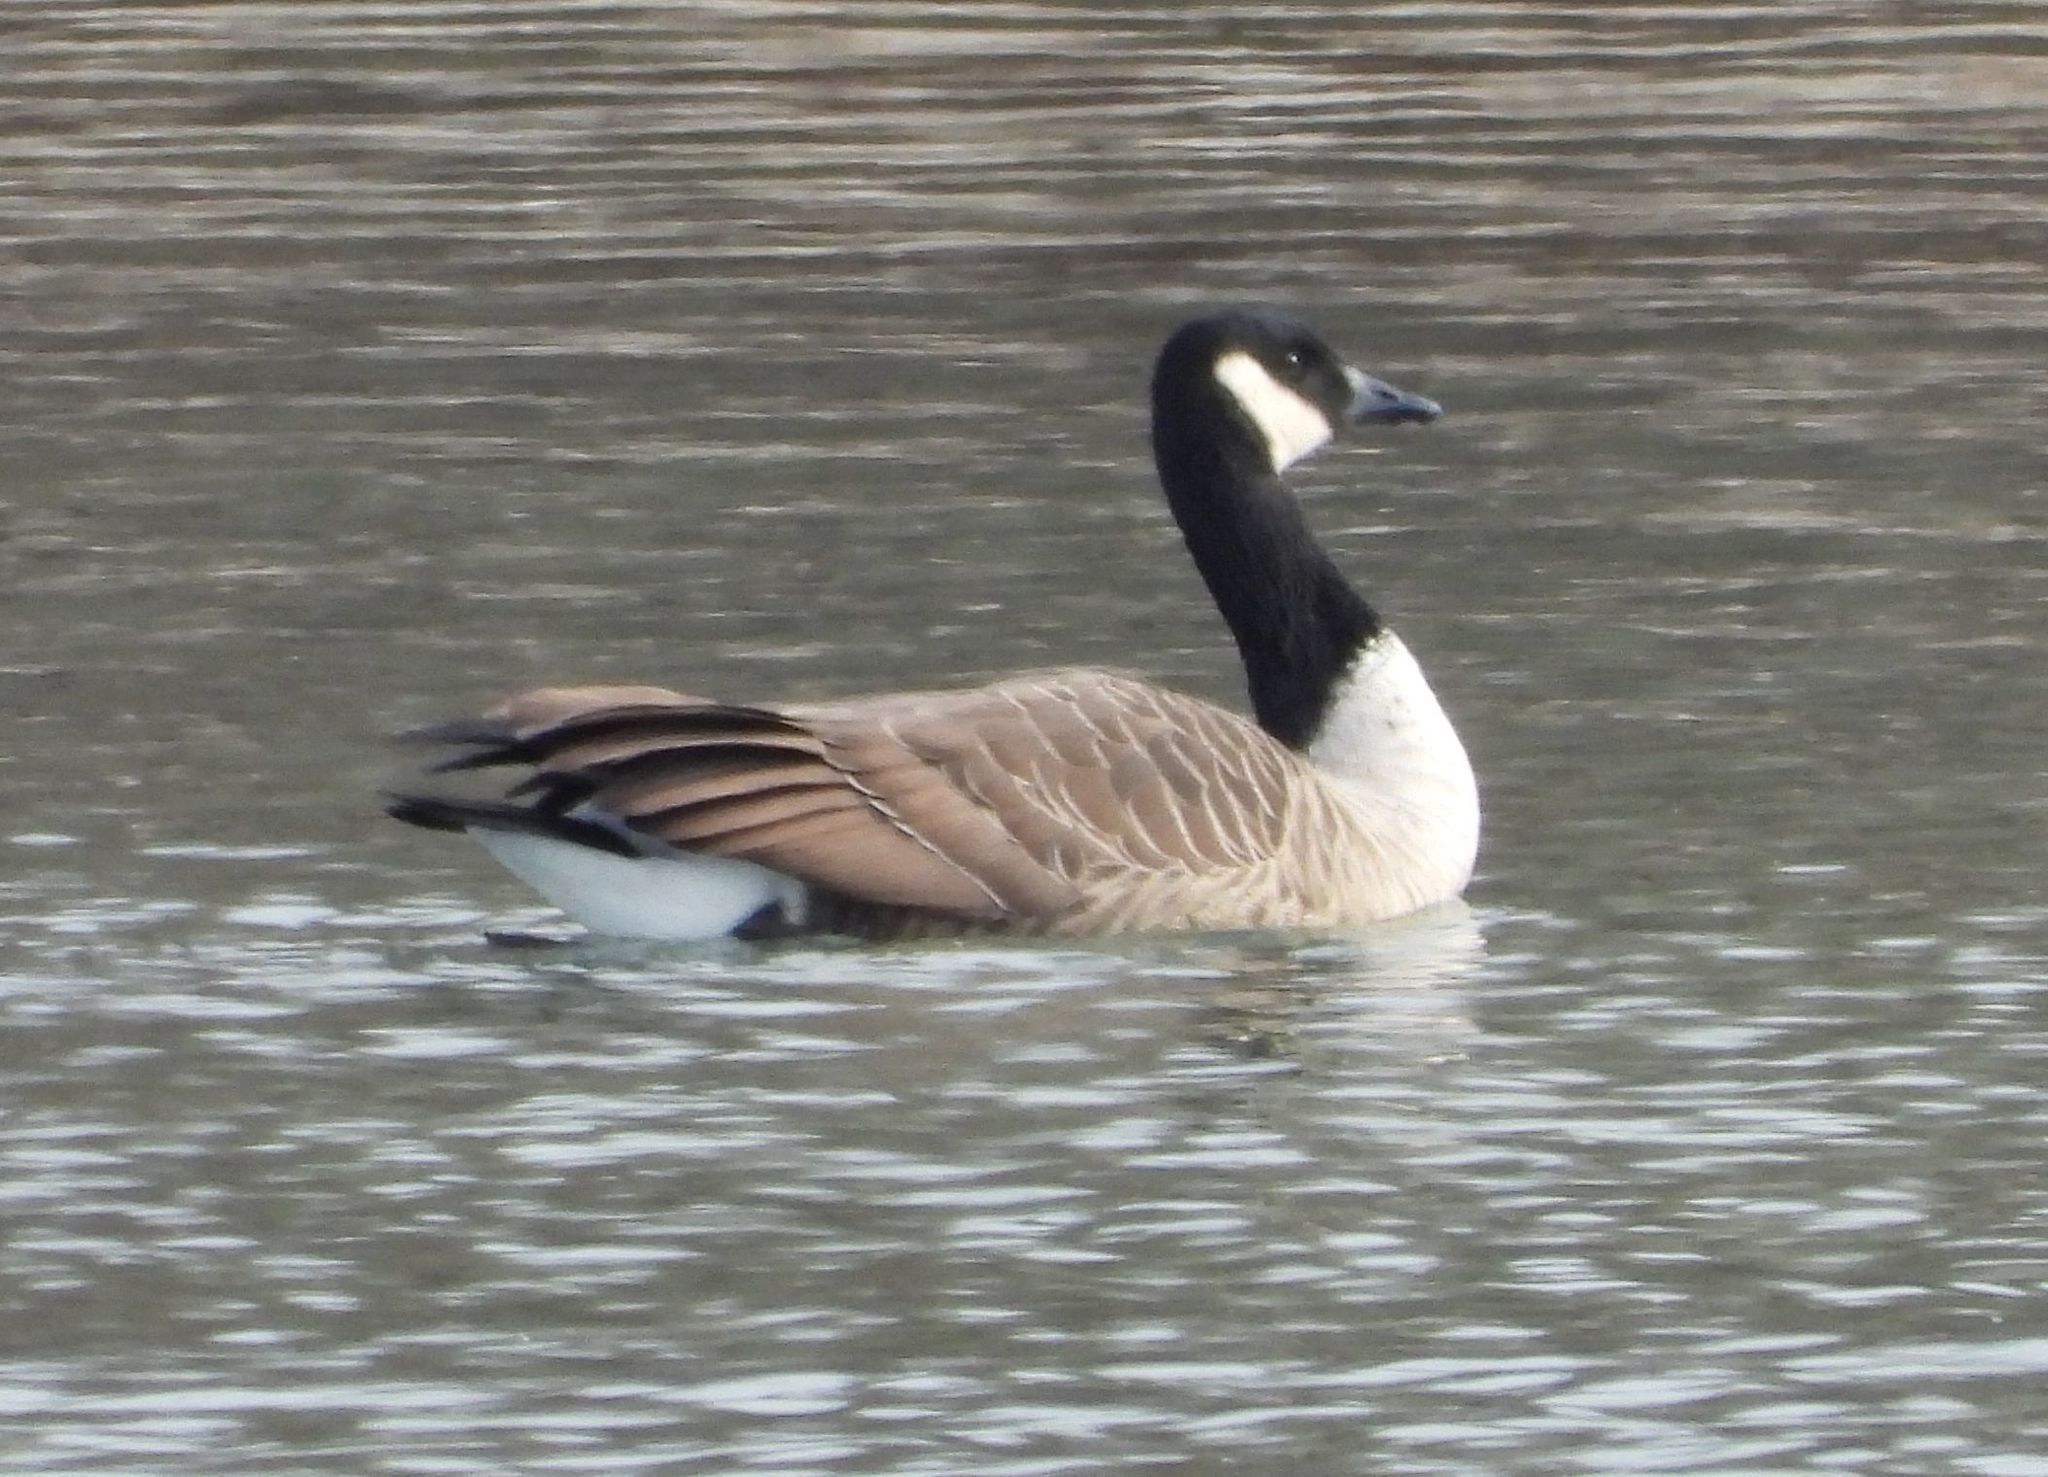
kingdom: Animalia
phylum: Chordata
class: Aves
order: Anseriformes
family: Anatidae
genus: Branta
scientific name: Branta canadensis
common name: Canada goose
